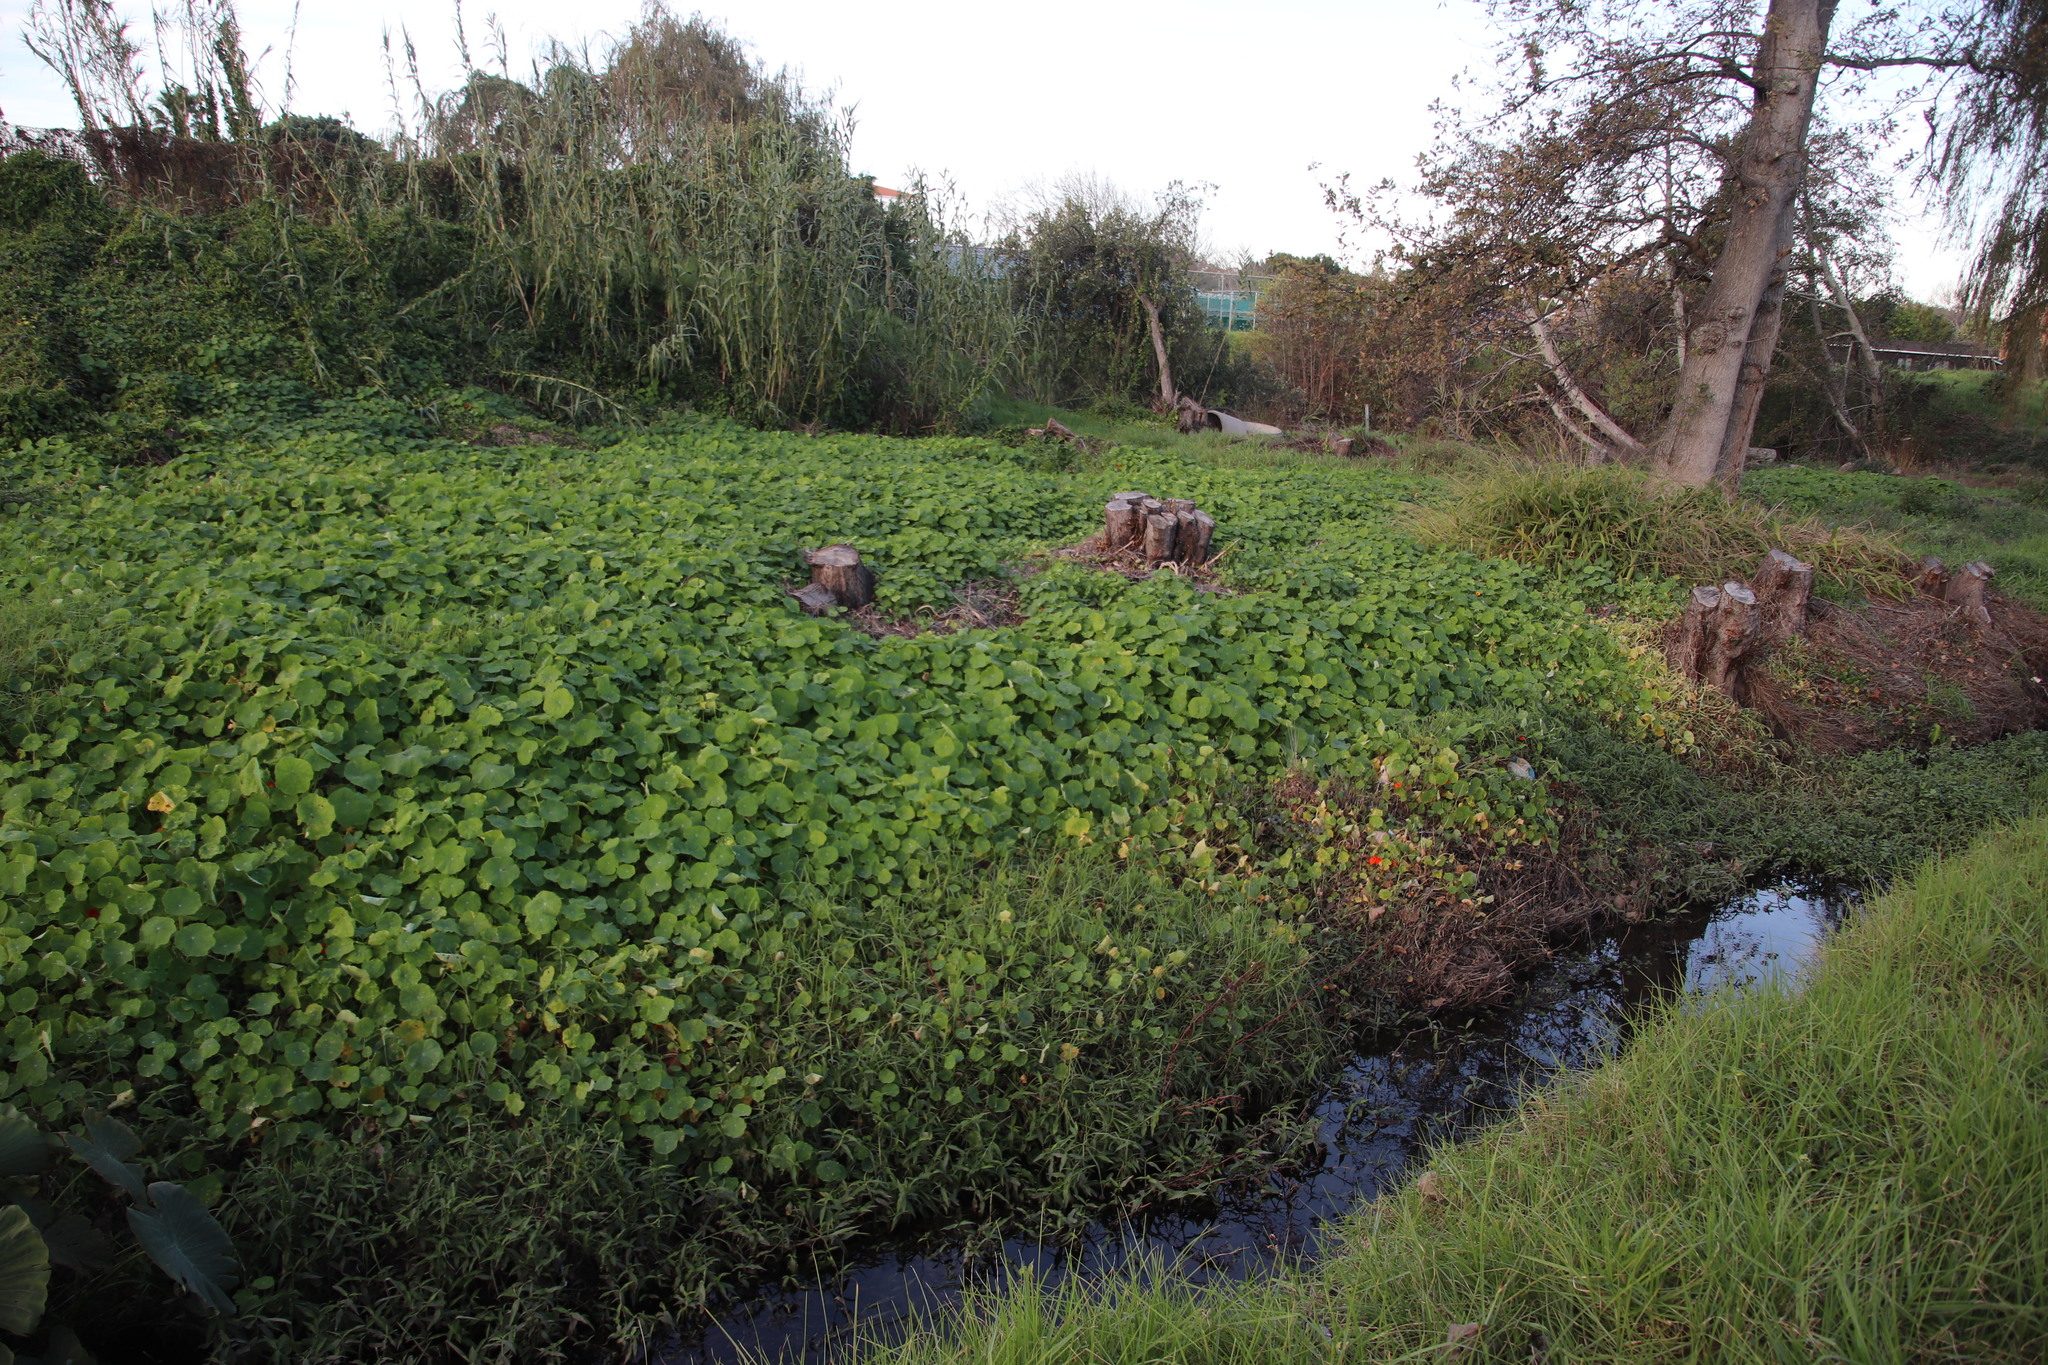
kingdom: Plantae
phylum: Tracheophyta
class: Magnoliopsida
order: Brassicales
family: Tropaeolaceae
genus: Tropaeolum
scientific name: Tropaeolum majus
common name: Nasturtium
